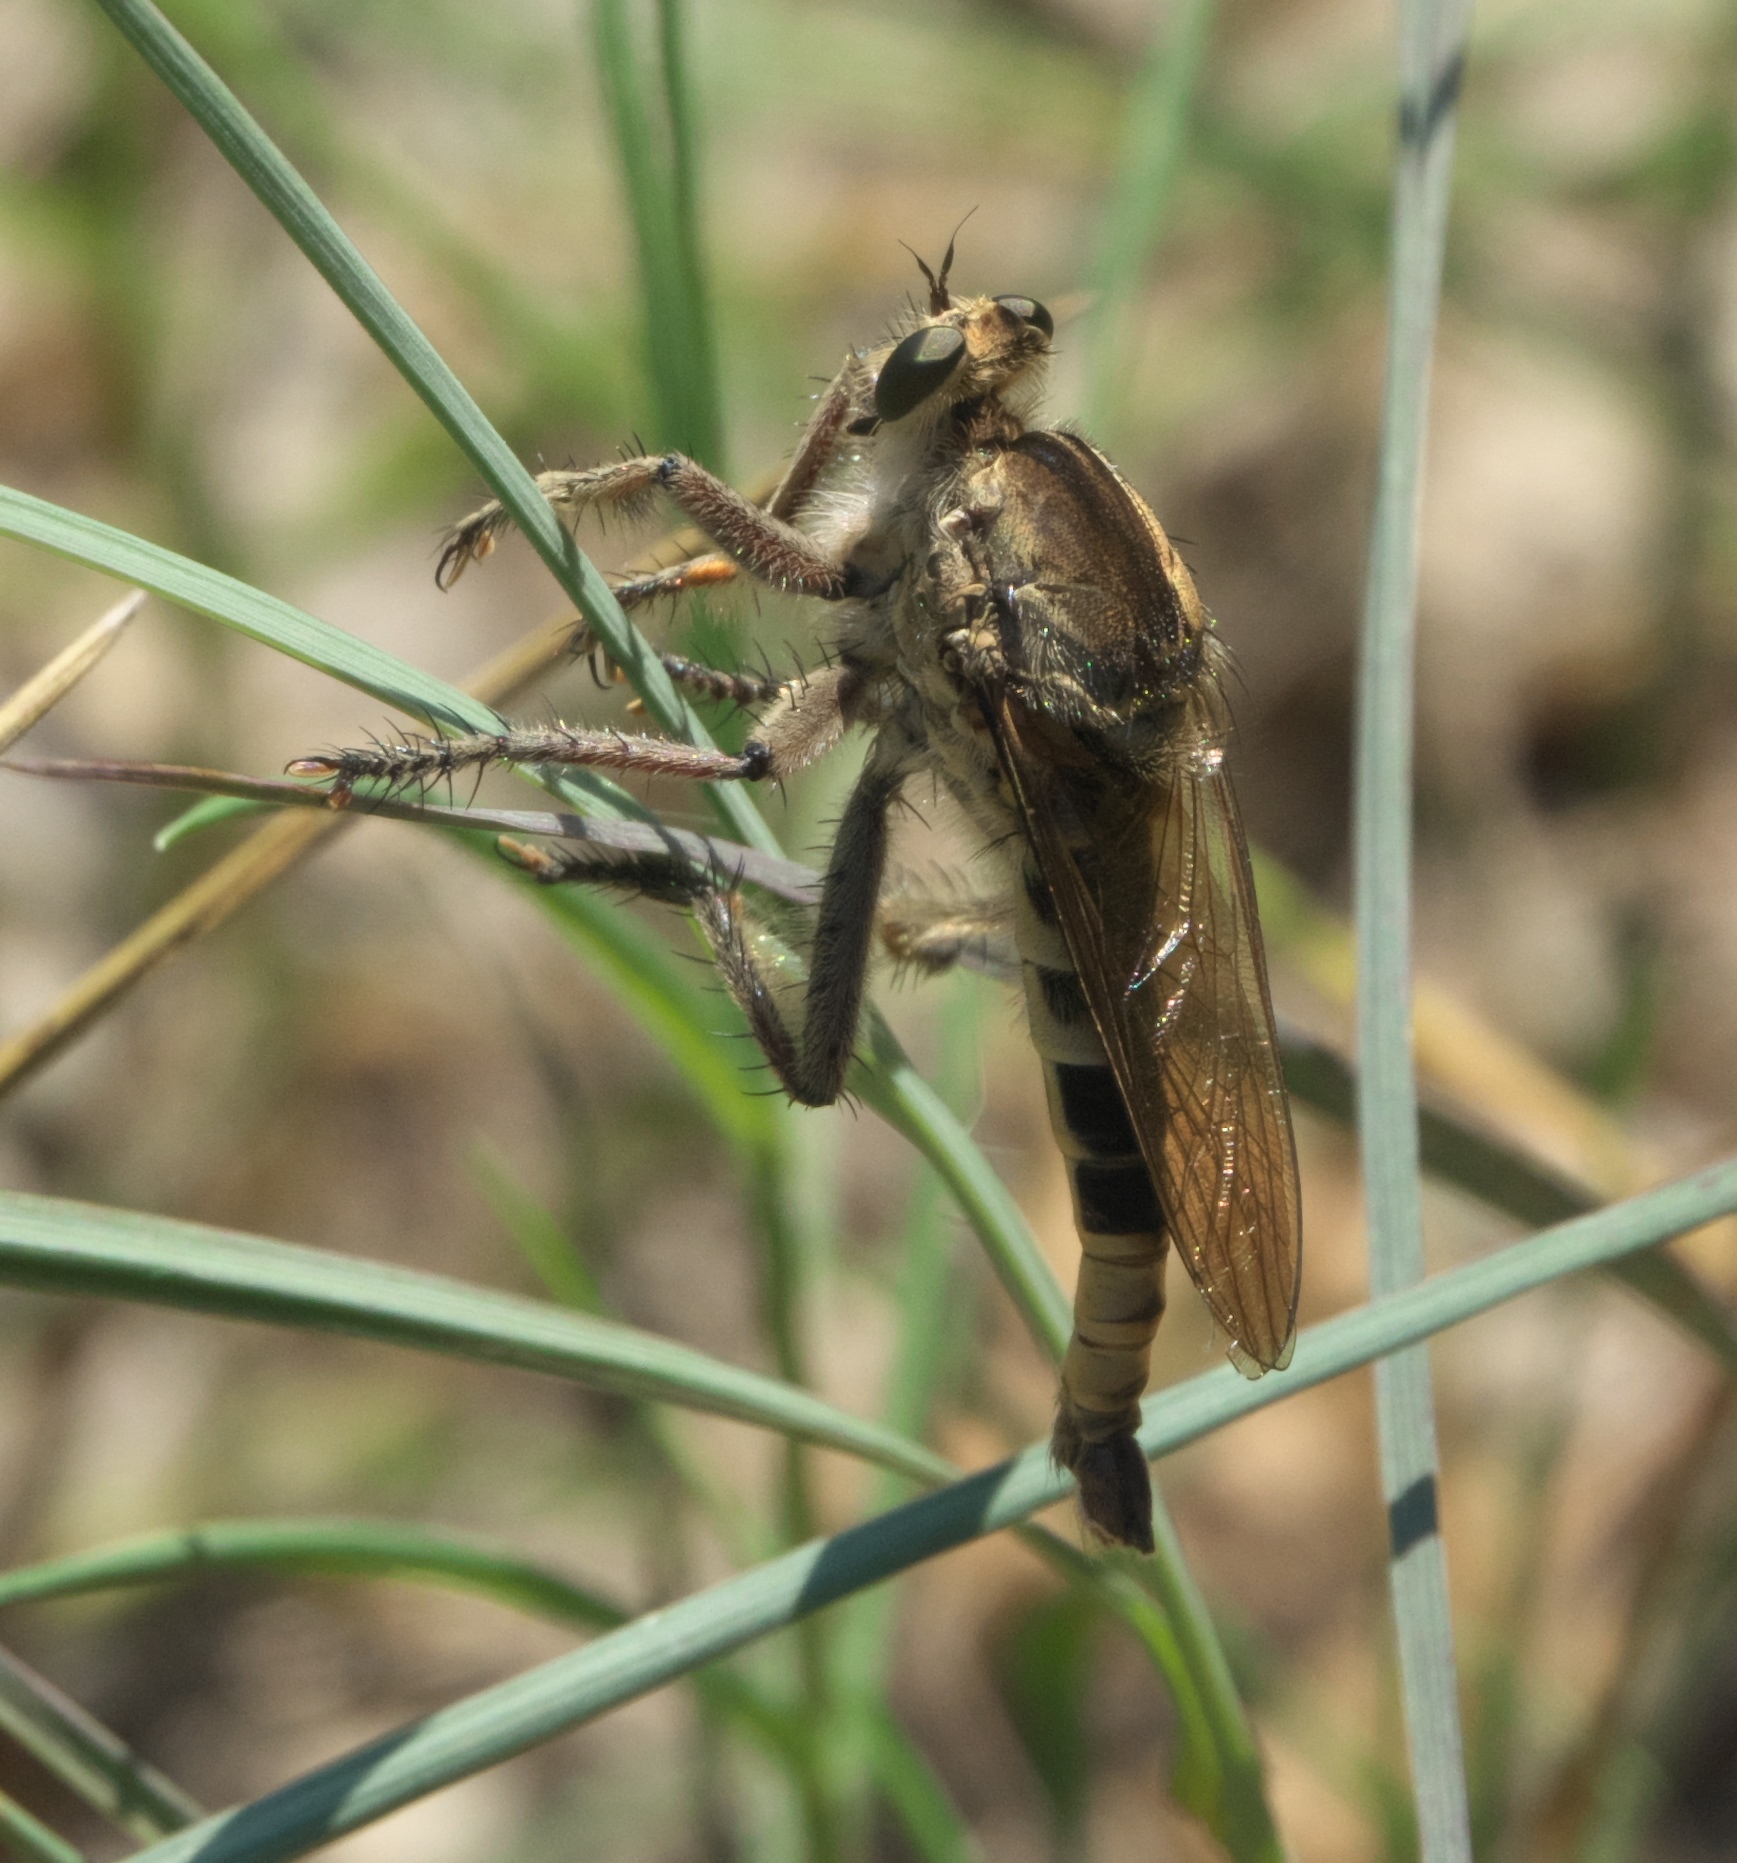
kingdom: Animalia
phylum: Arthropoda
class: Insecta
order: Diptera
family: Asilidae
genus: Triorla
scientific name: Triorla interrupta
